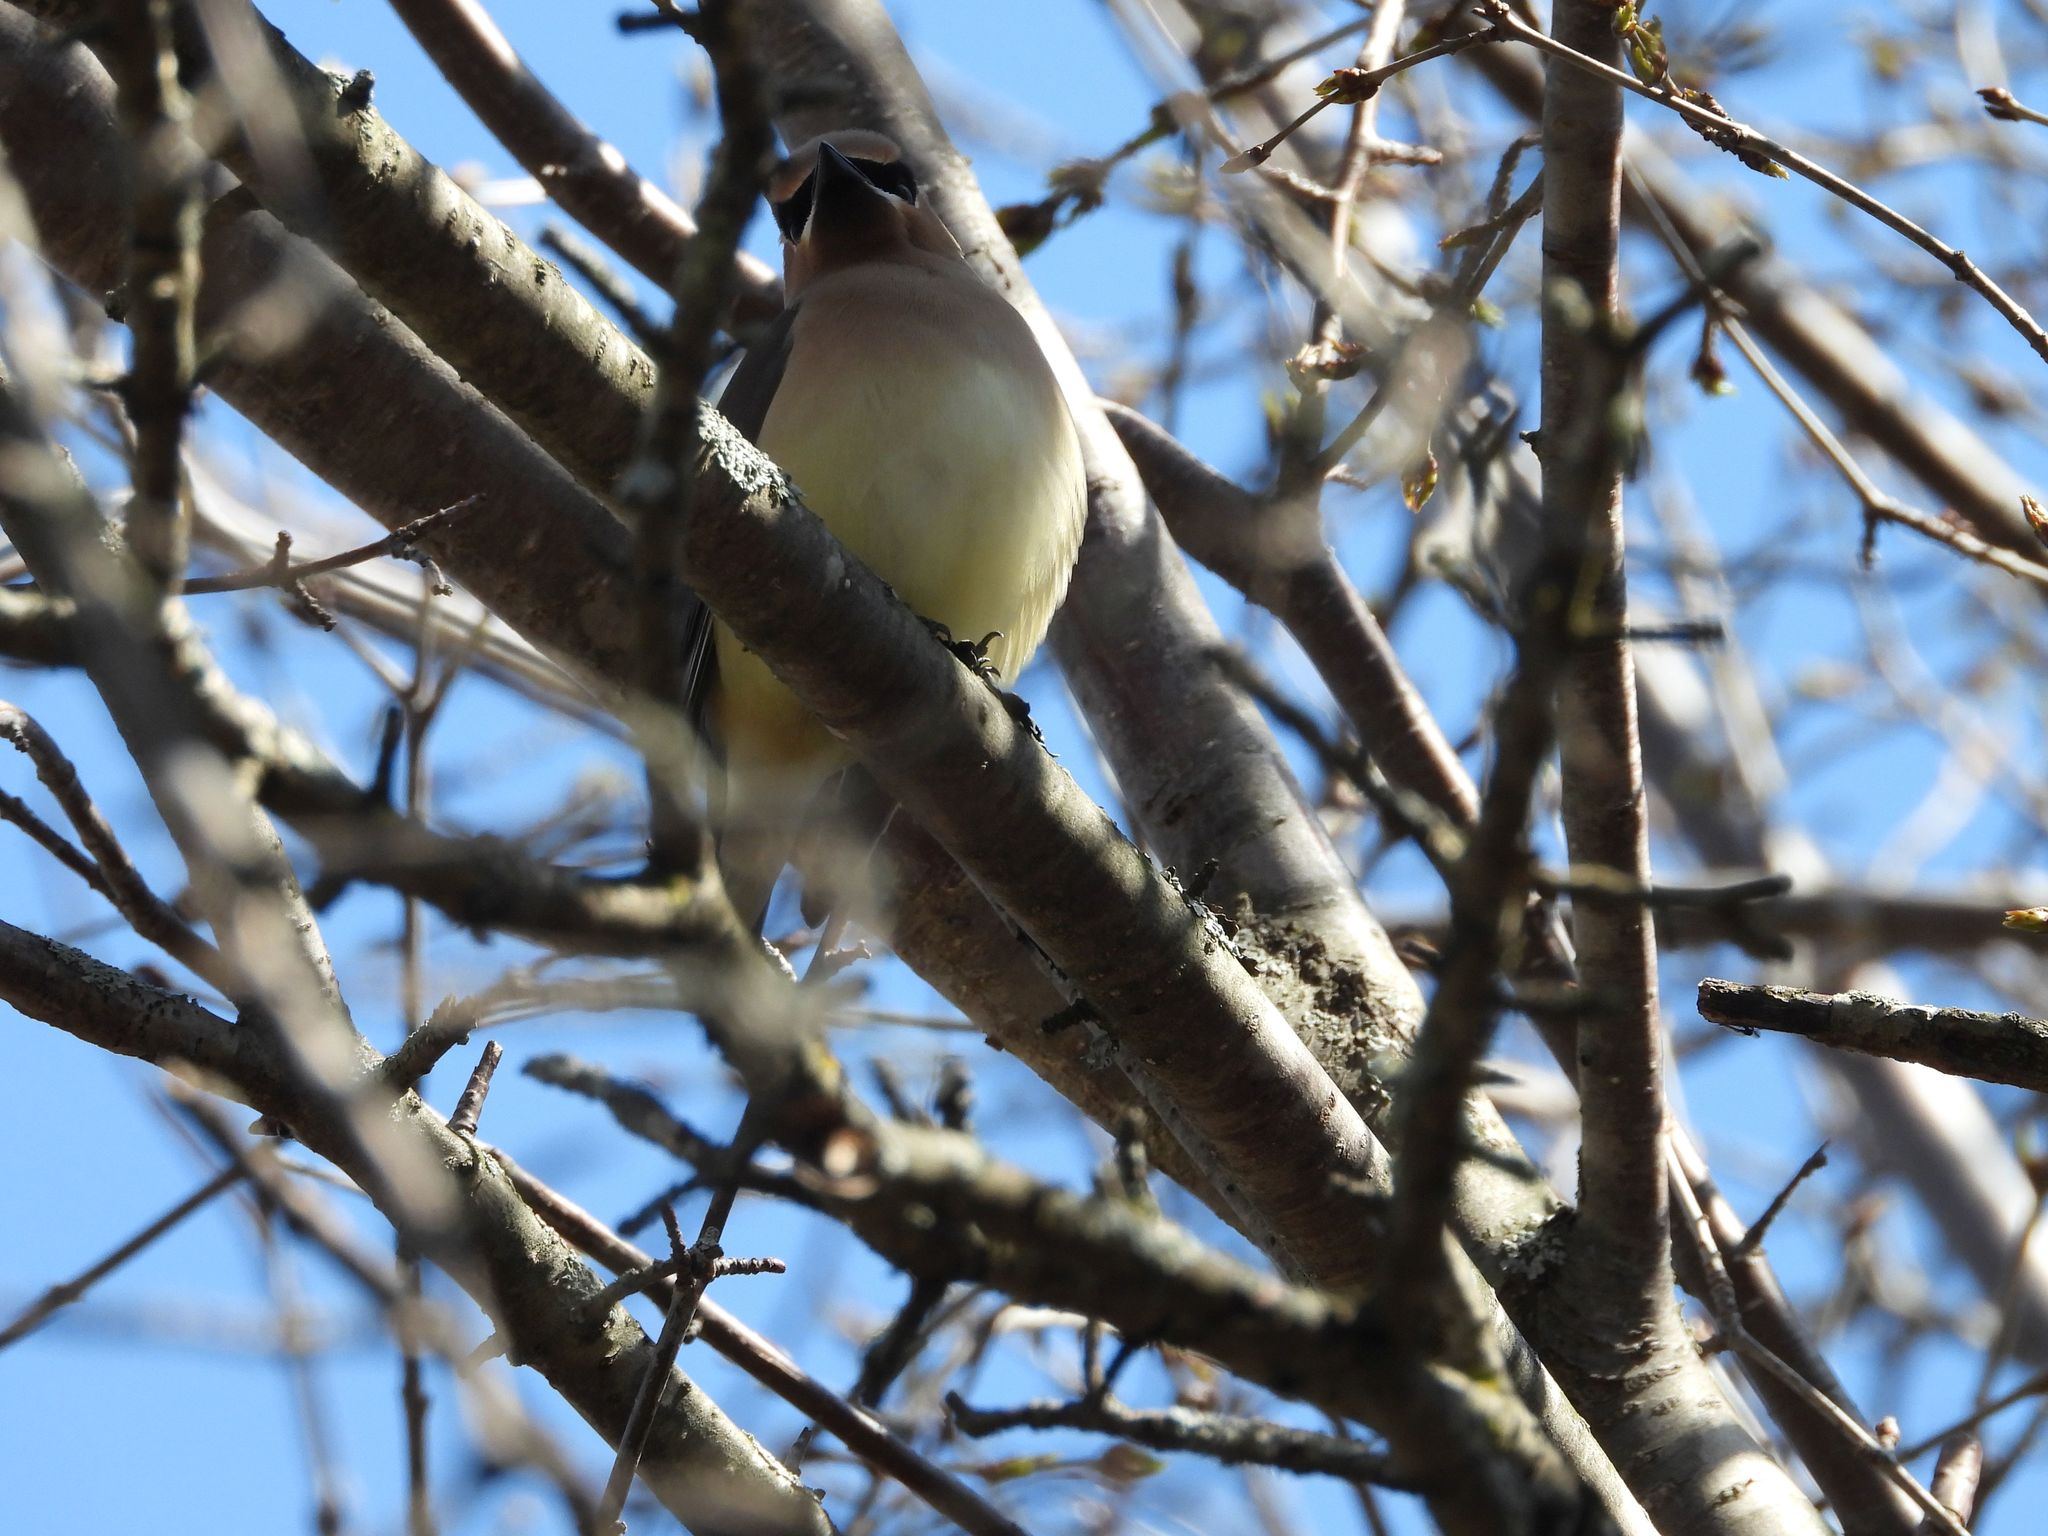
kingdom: Animalia
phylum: Chordata
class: Aves
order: Passeriformes
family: Bombycillidae
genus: Bombycilla
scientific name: Bombycilla cedrorum
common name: Cedar waxwing
